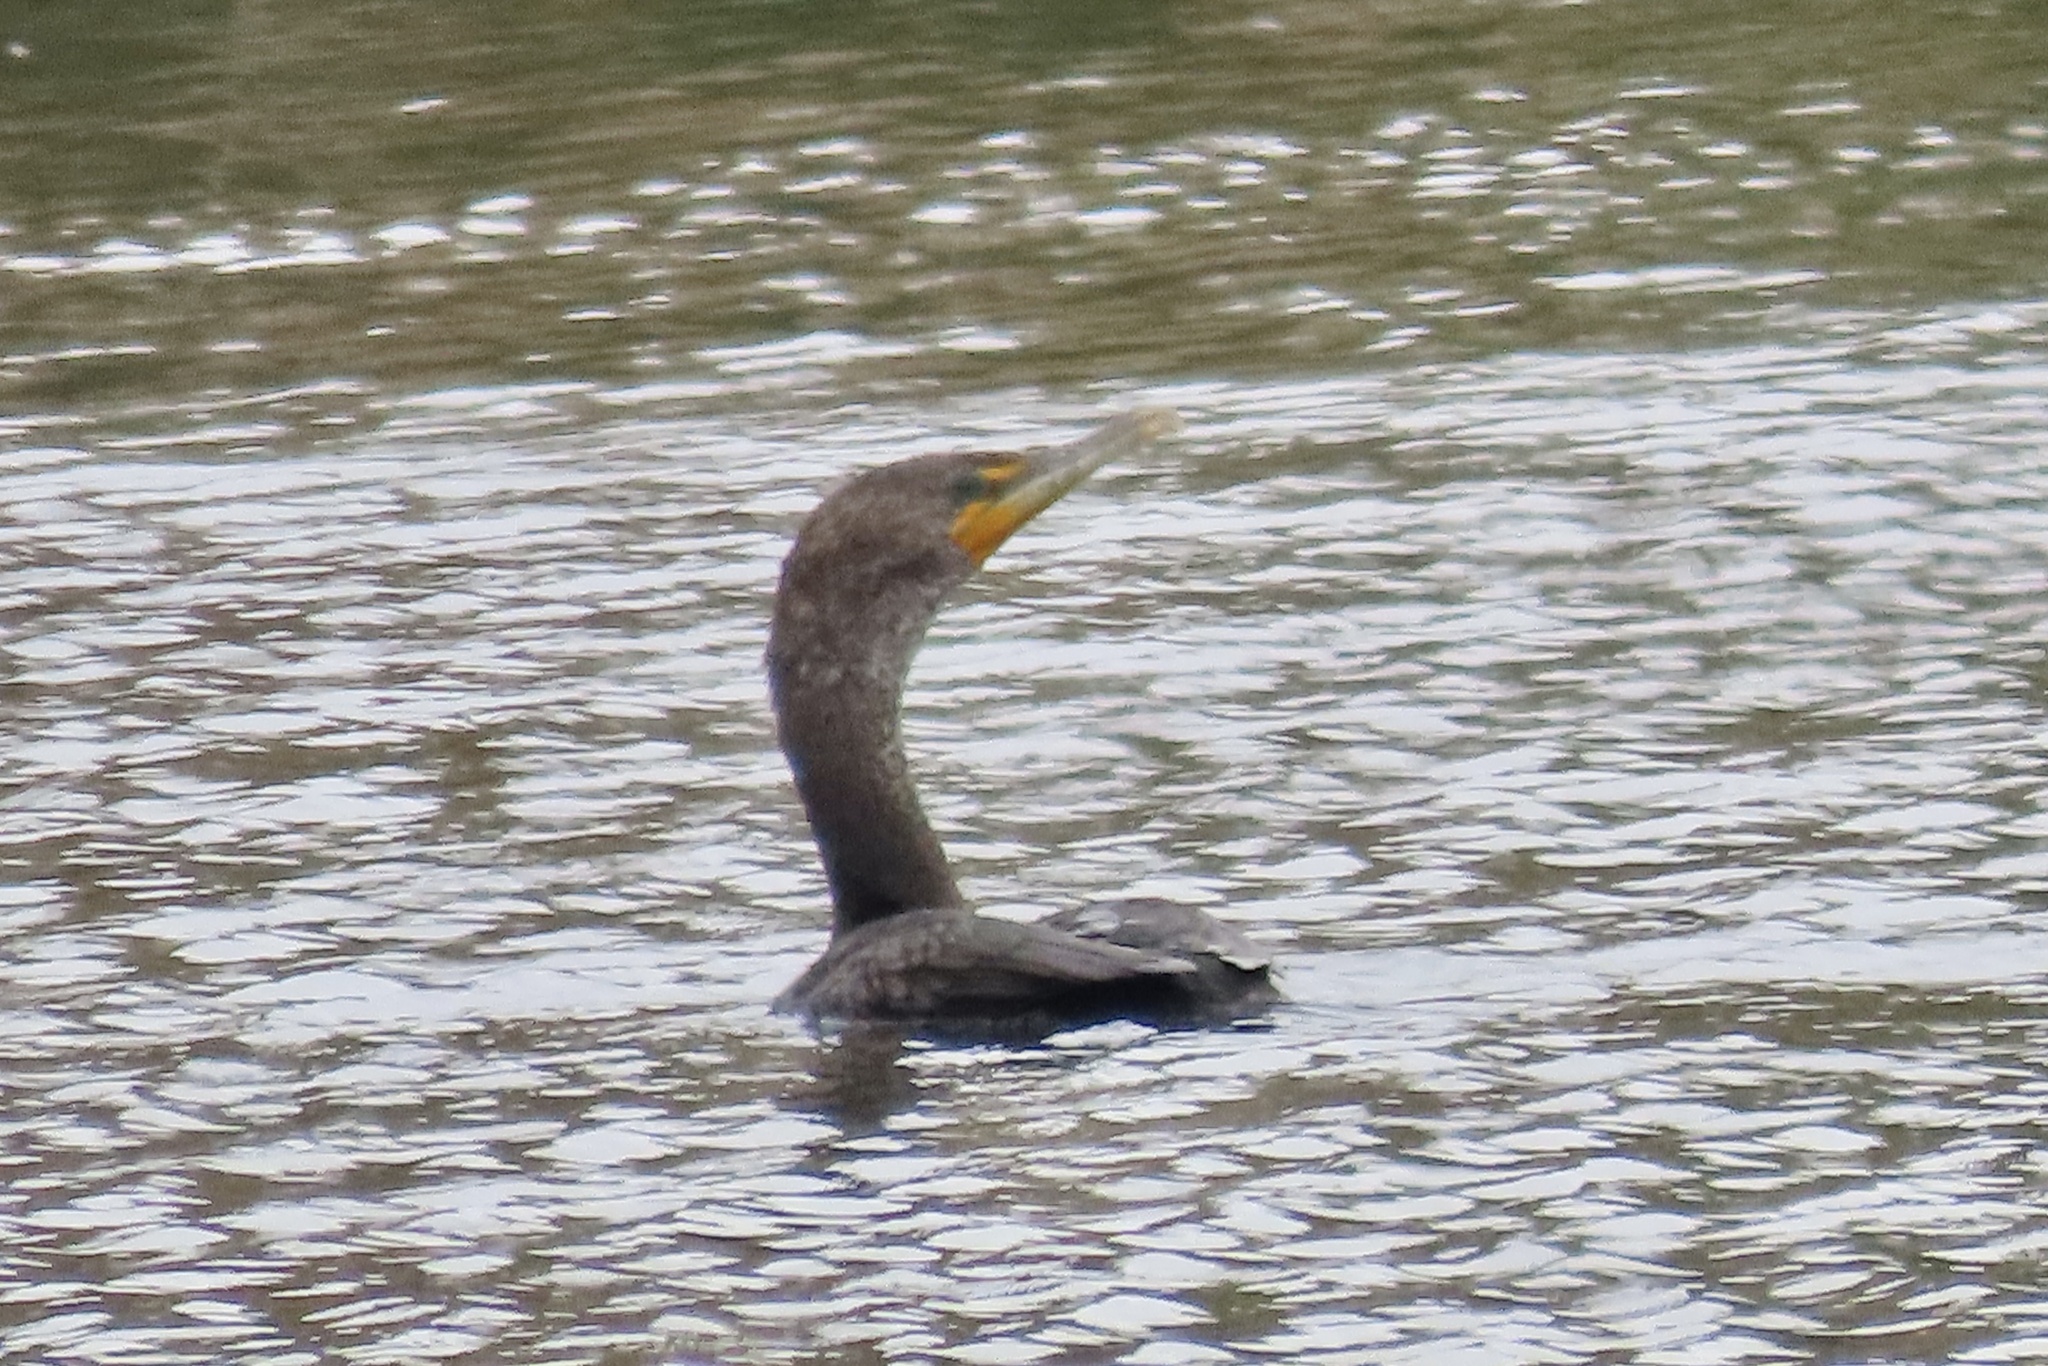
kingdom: Animalia
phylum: Chordata
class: Aves
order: Suliformes
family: Phalacrocoracidae
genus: Phalacrocorax
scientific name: Phalacrocorax auritus
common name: Double-crested cormorant
